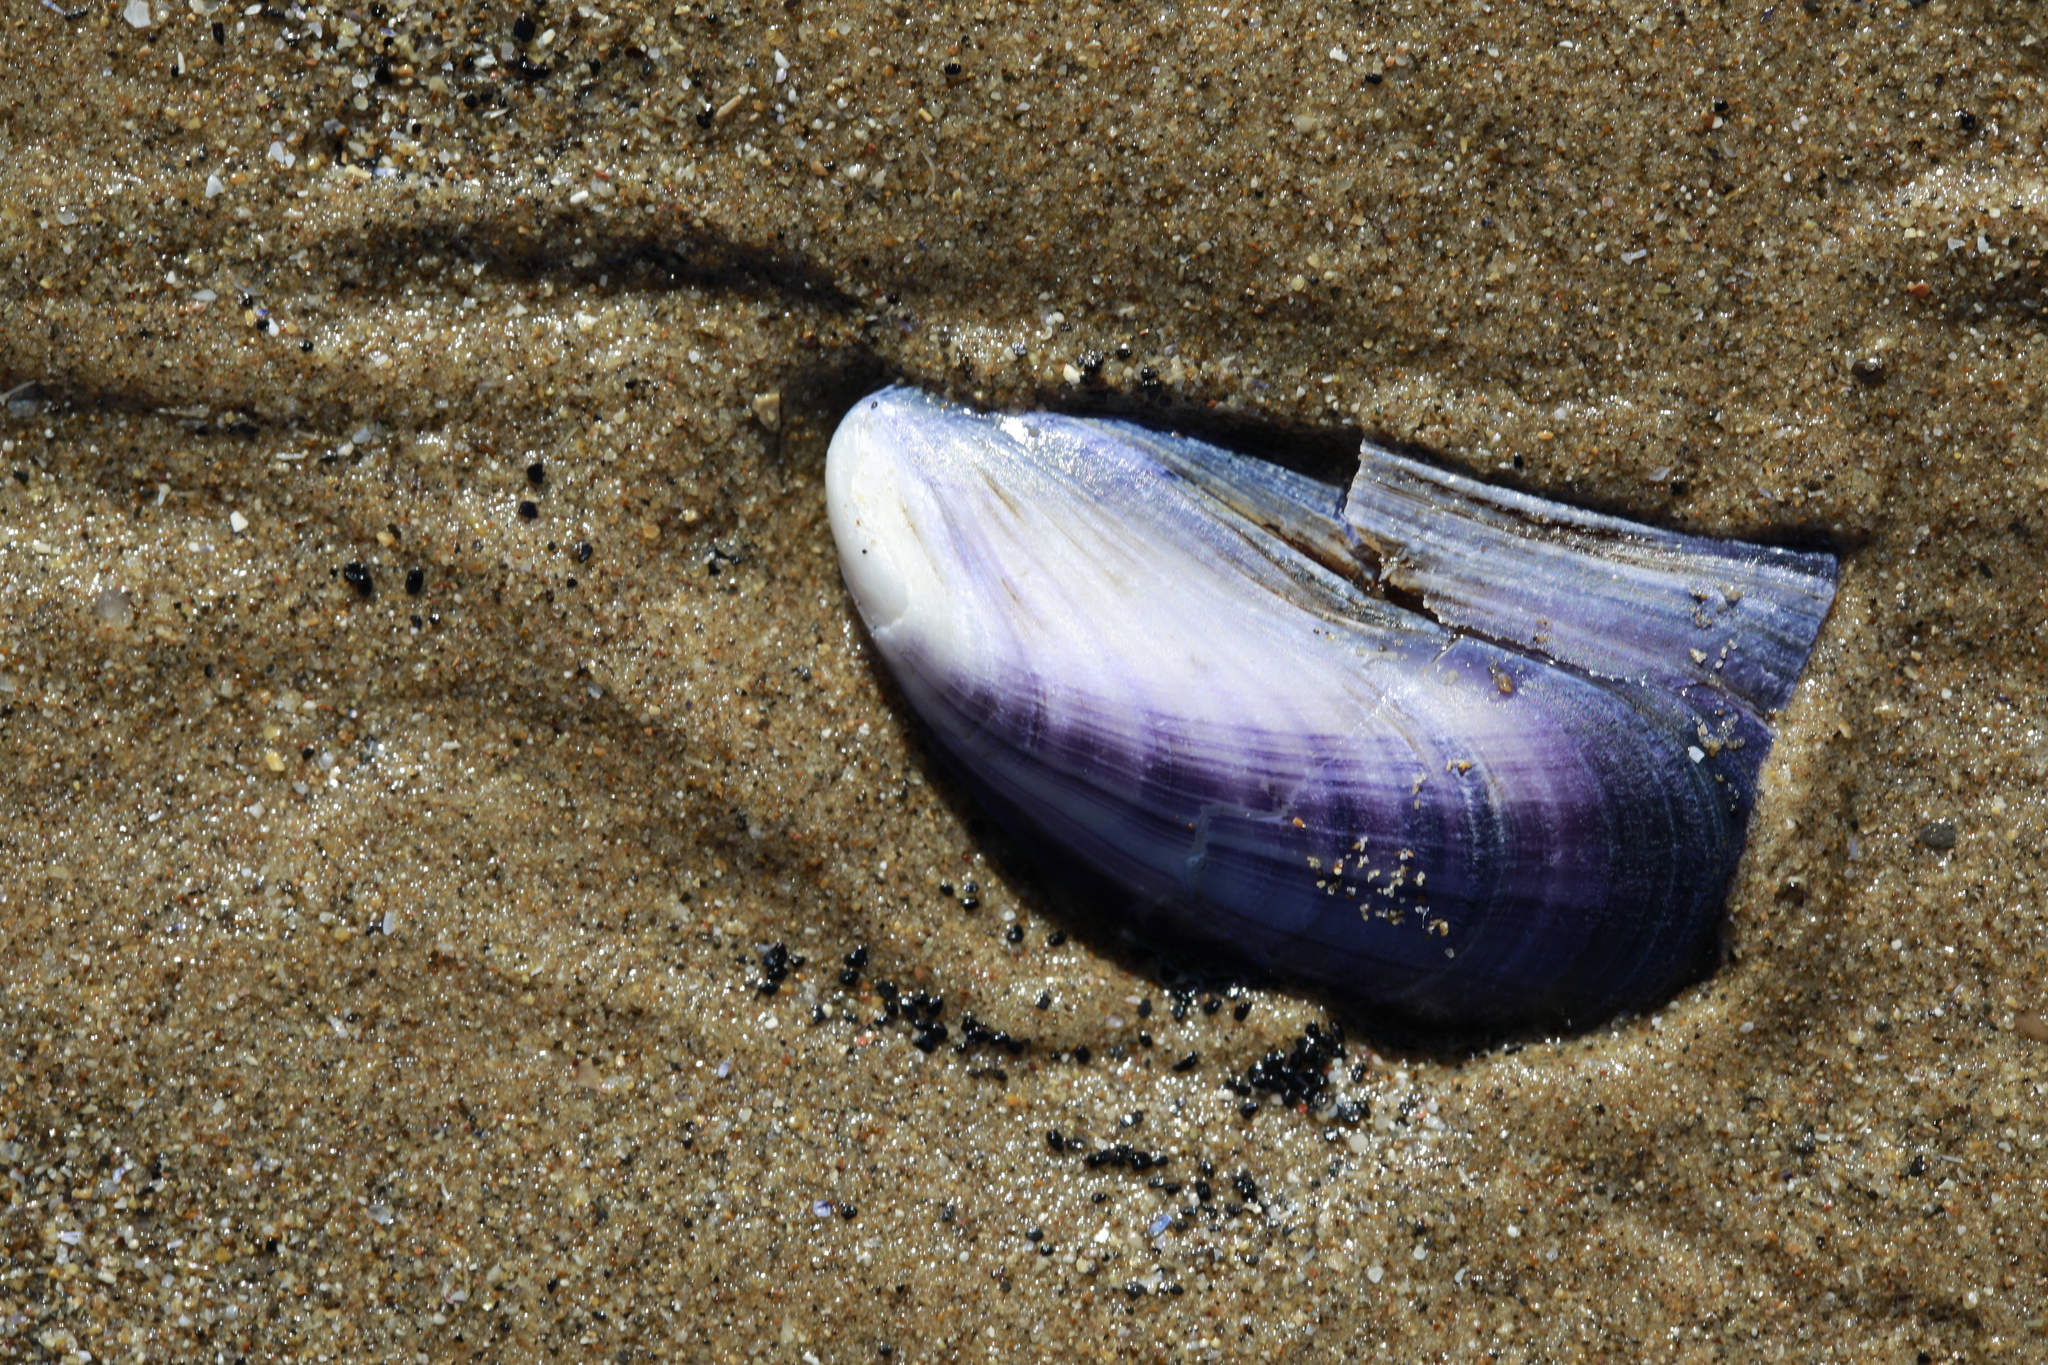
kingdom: Animalia
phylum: Mollusca
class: Bivalvia
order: Mytilida
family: Mytilidae
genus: Mytilus
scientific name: Mytilus edulis
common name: Blue mussel
